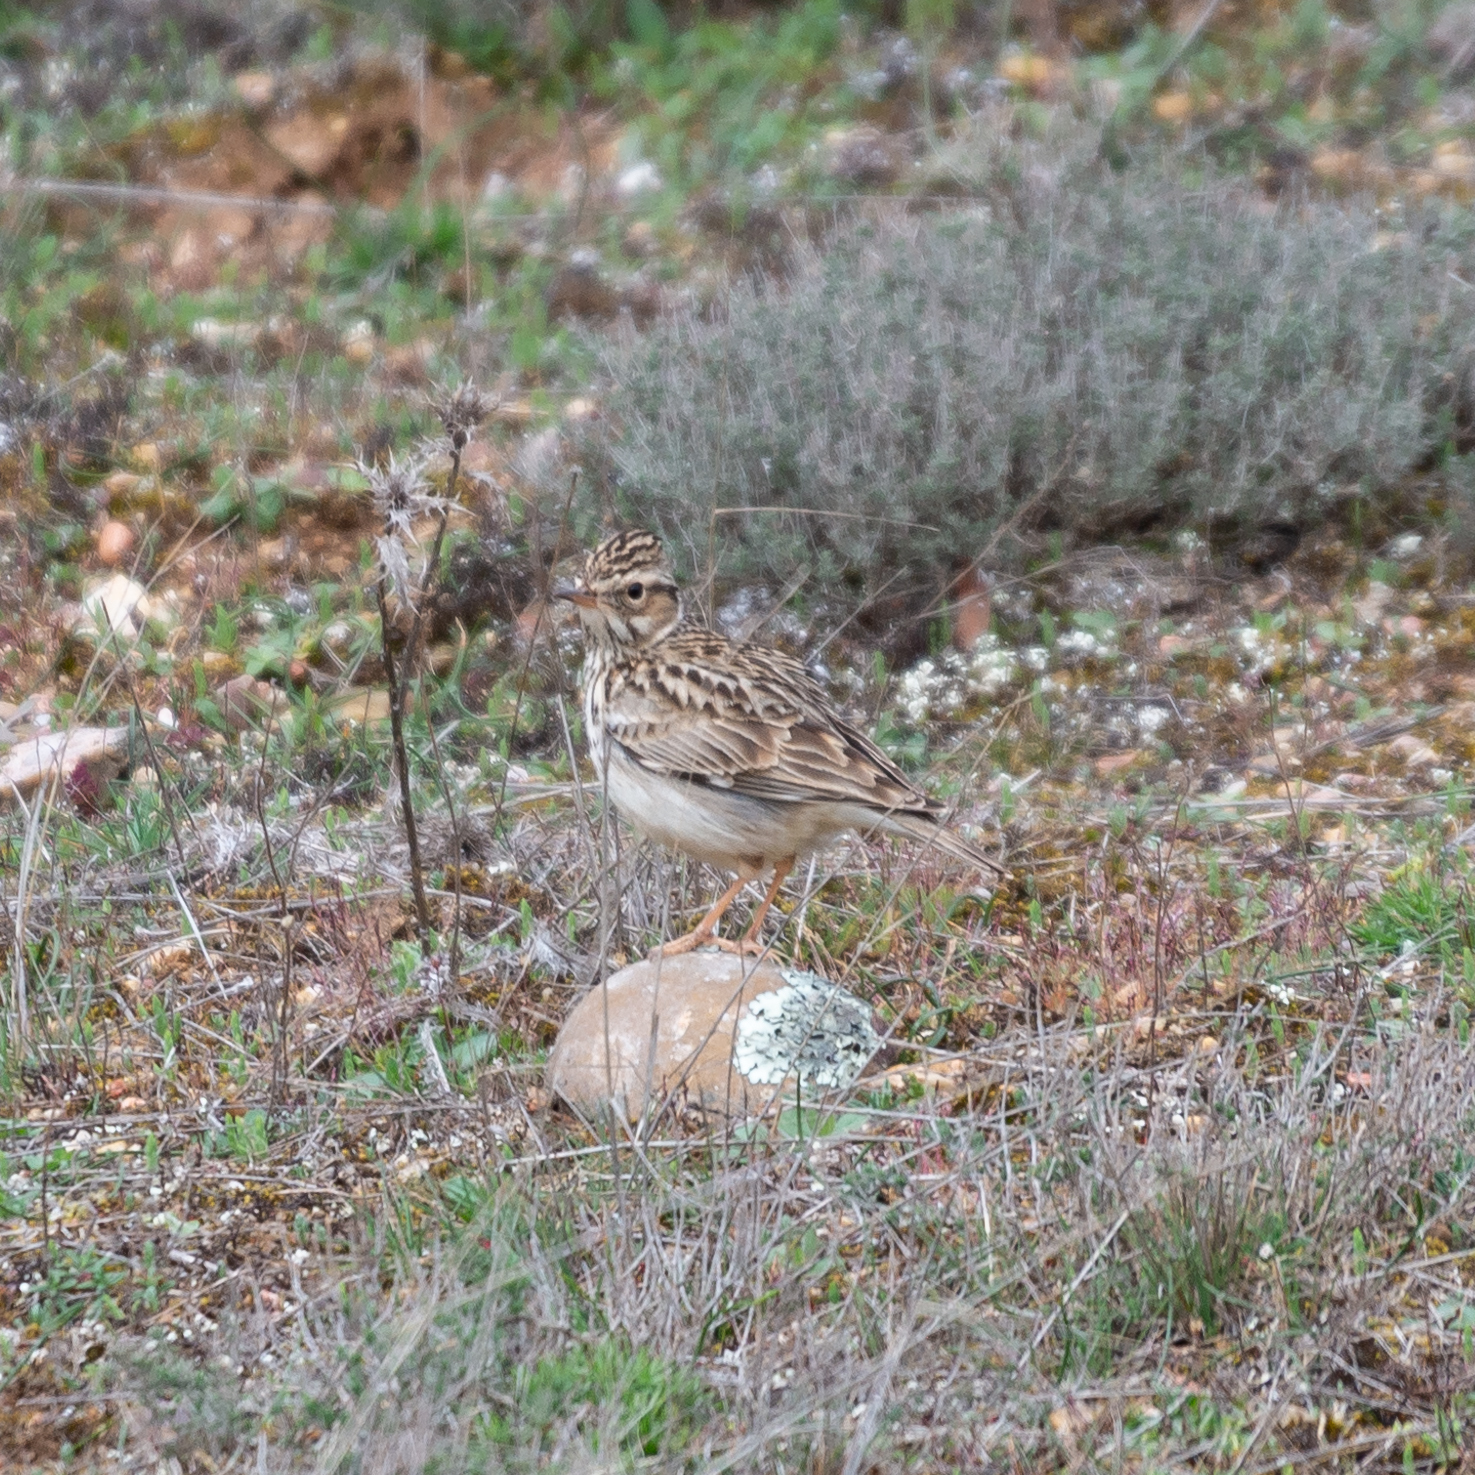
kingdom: Animalia
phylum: Chordata
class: Aves
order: Passeriformes
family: Alaudidae
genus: Lullula
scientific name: Lullula arborea
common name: Woodlark
